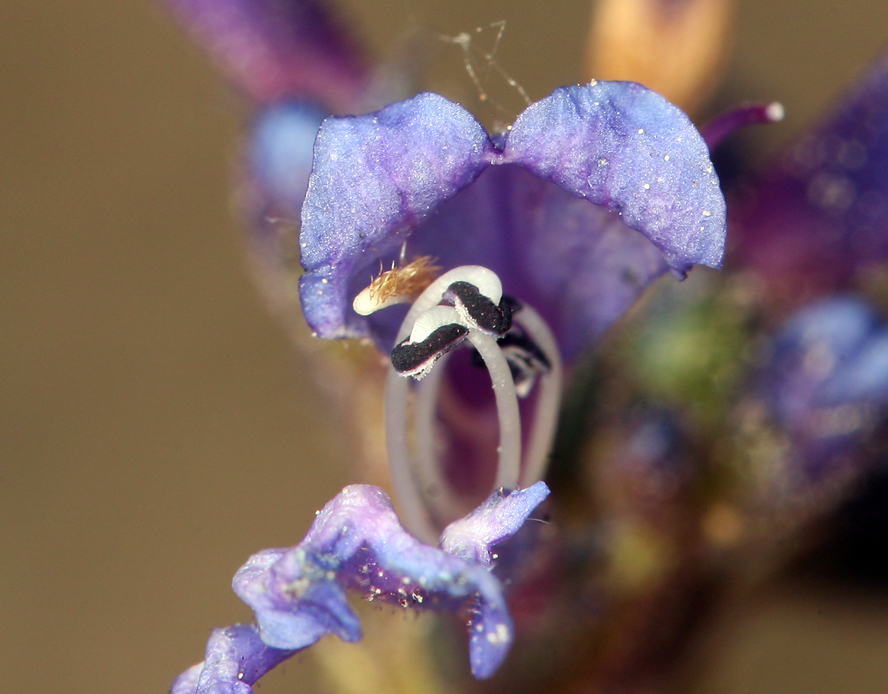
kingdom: Plantae
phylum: Tracheophyta
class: Magnoliopsida
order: Lamiales
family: Plantaginaceae
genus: Penstemon
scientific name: Penstemon gracilentus
